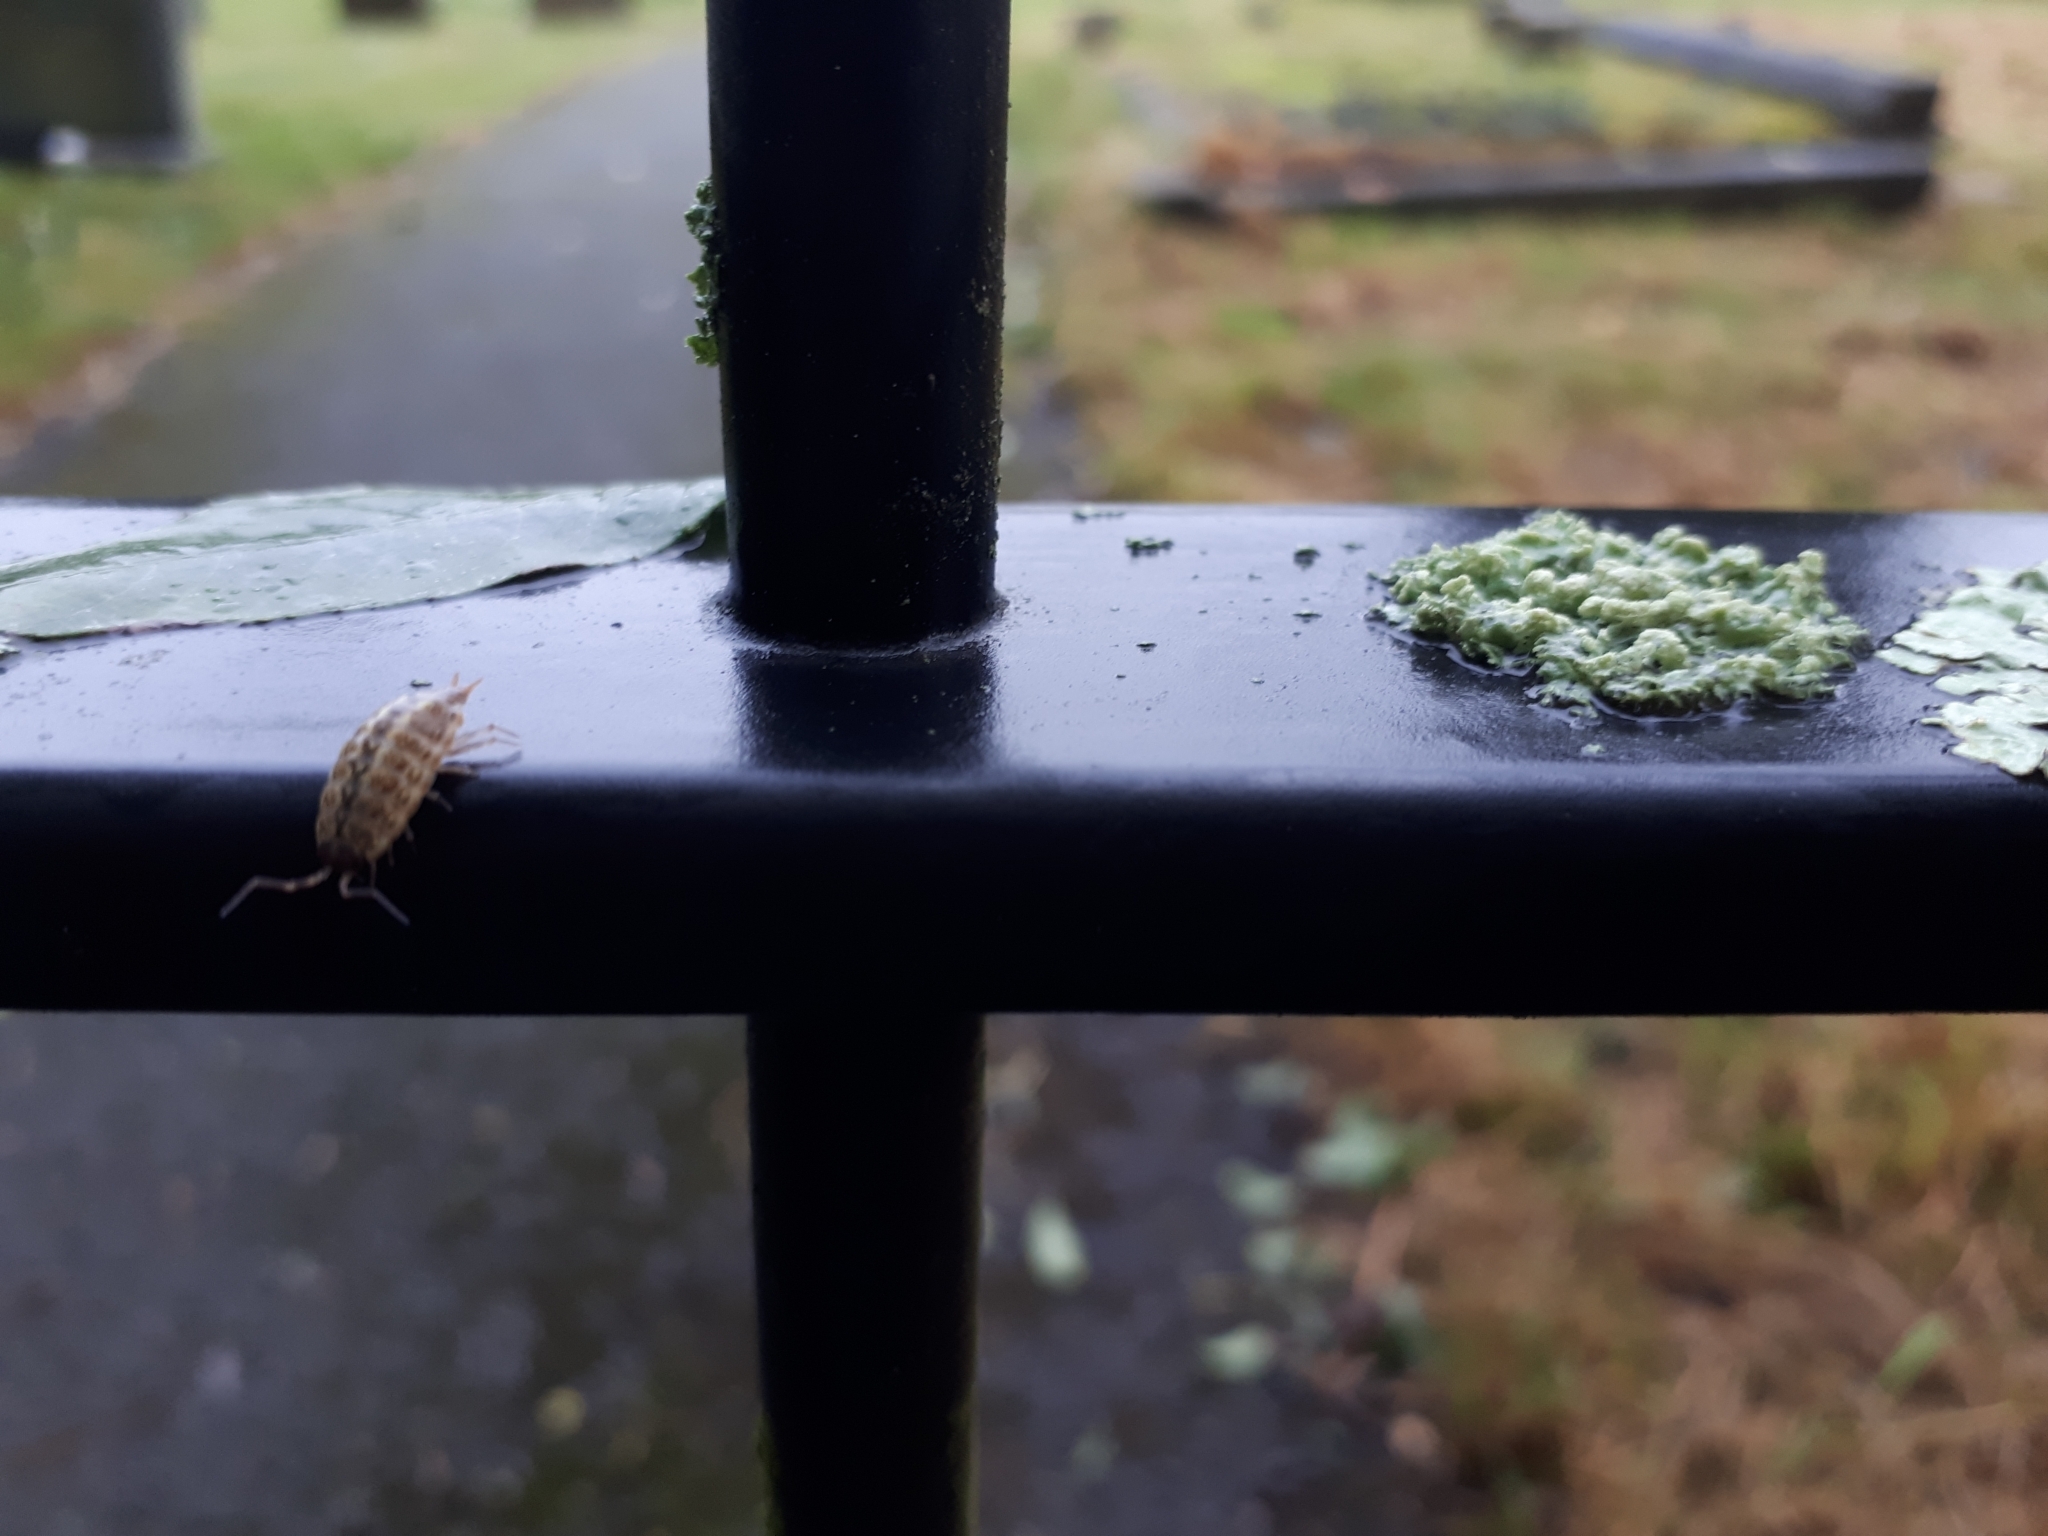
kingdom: Animalia
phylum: Arthropoda
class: Malacostraca
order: Isopoda
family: Philosciidae
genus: Philoscia
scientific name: Philoscia muscorum
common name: Common striped woodlouse
